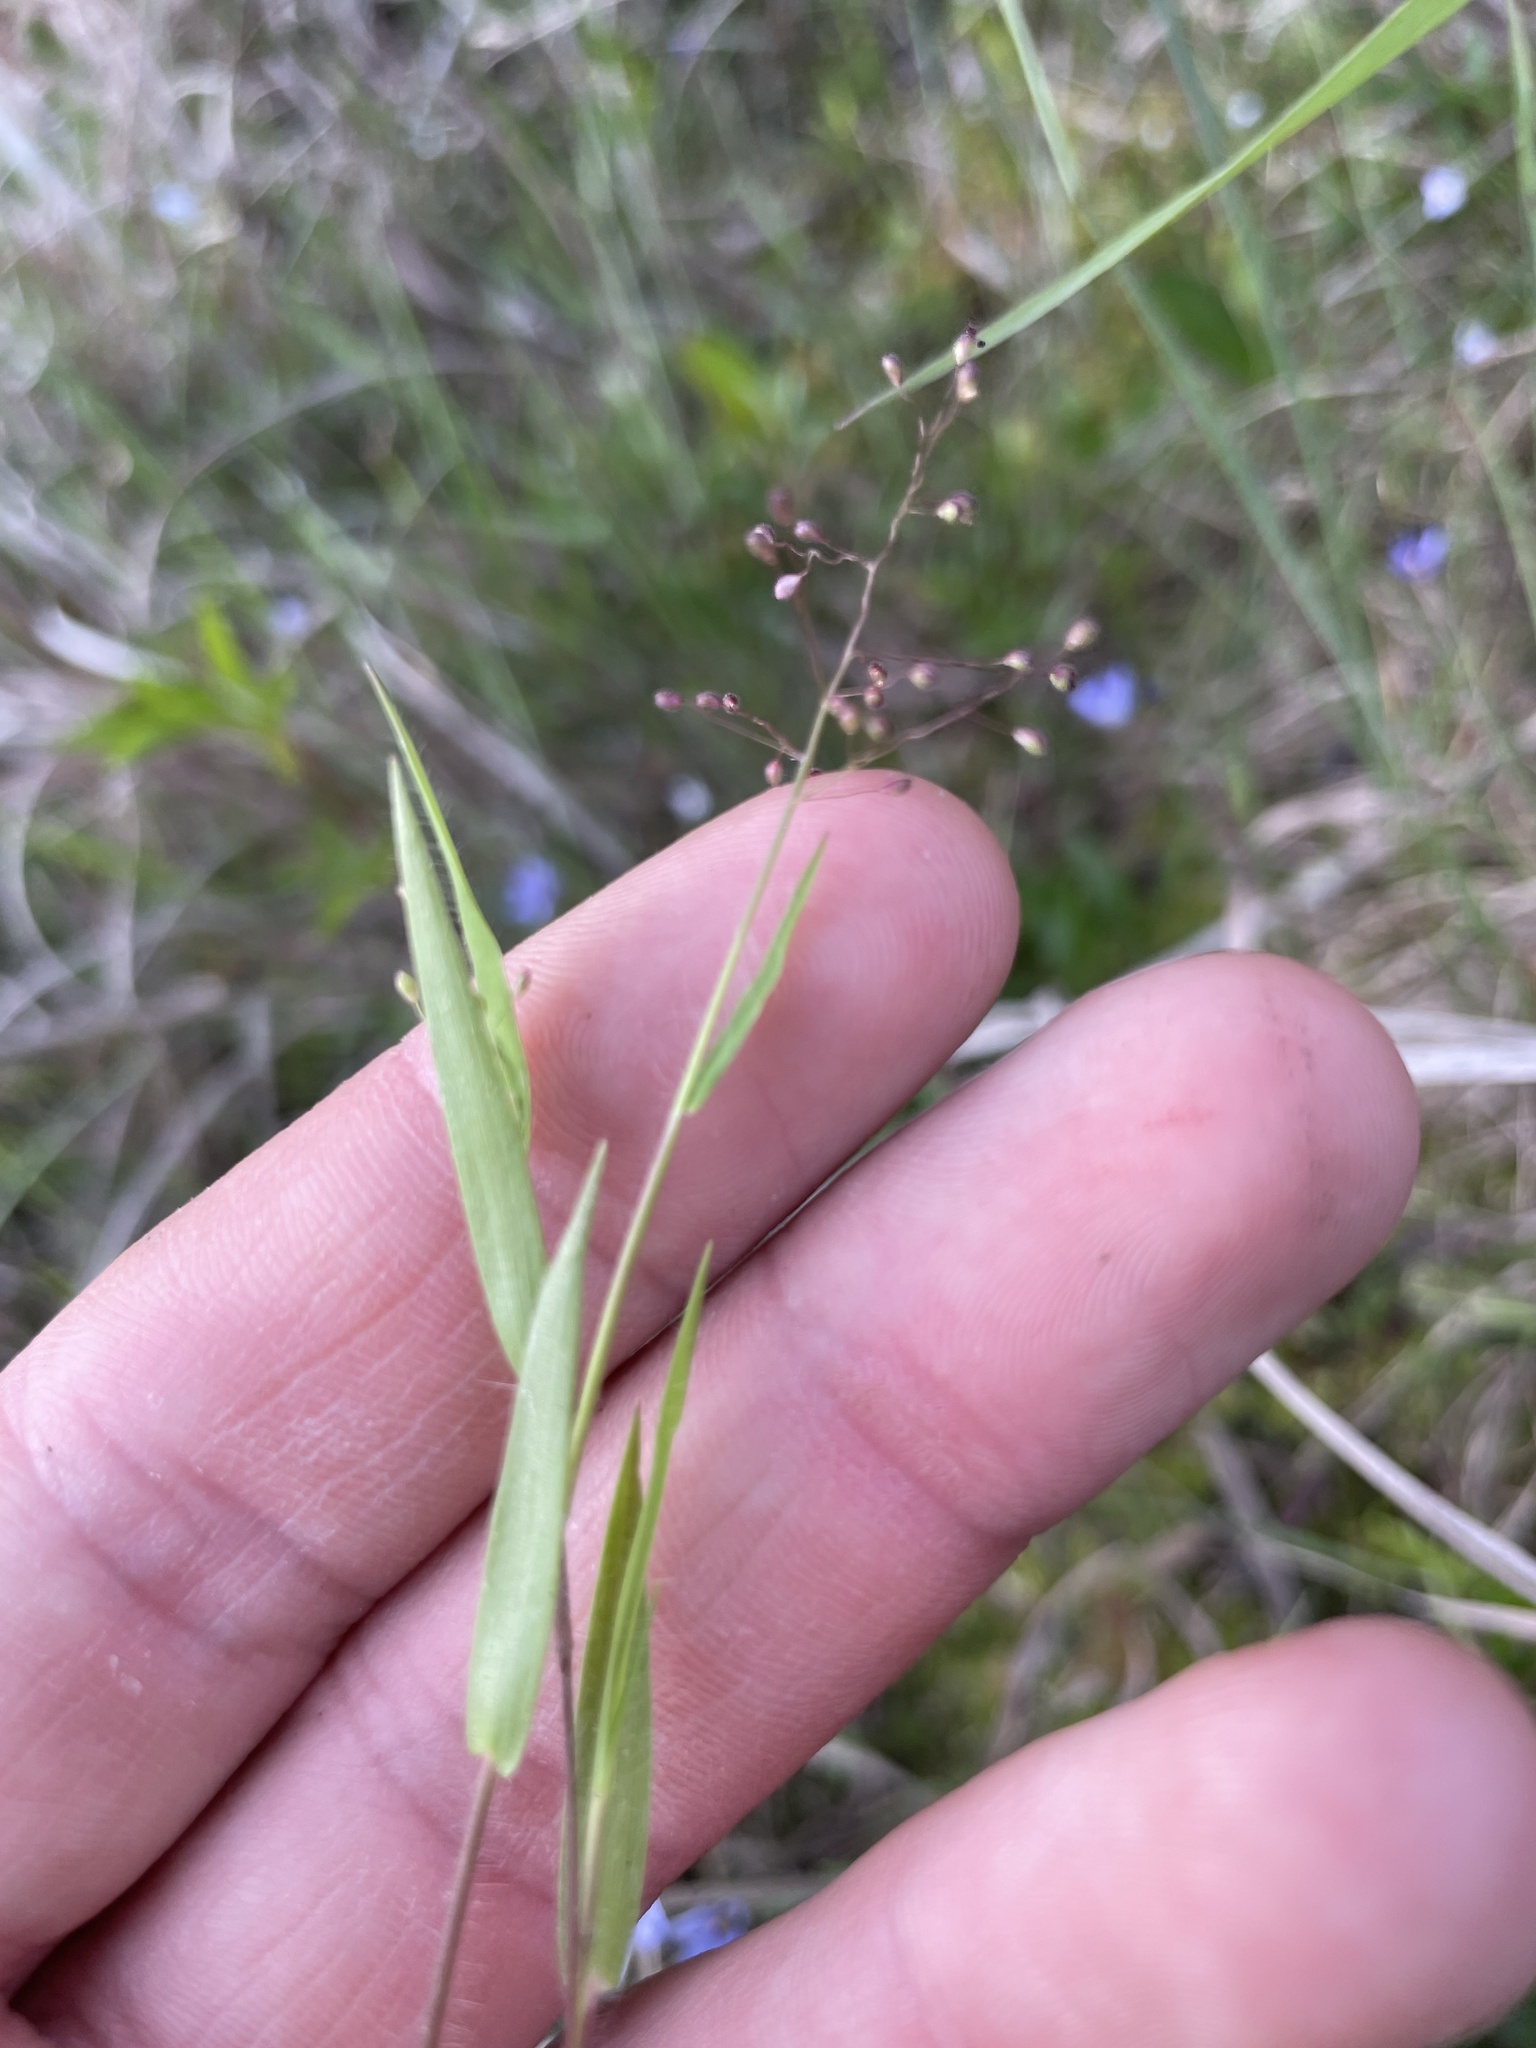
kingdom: Plantae
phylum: Tracheophyta
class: Liliopsida
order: Poales
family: Poaceae
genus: Dichanthelium
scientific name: Dichanthelium ensifolium
